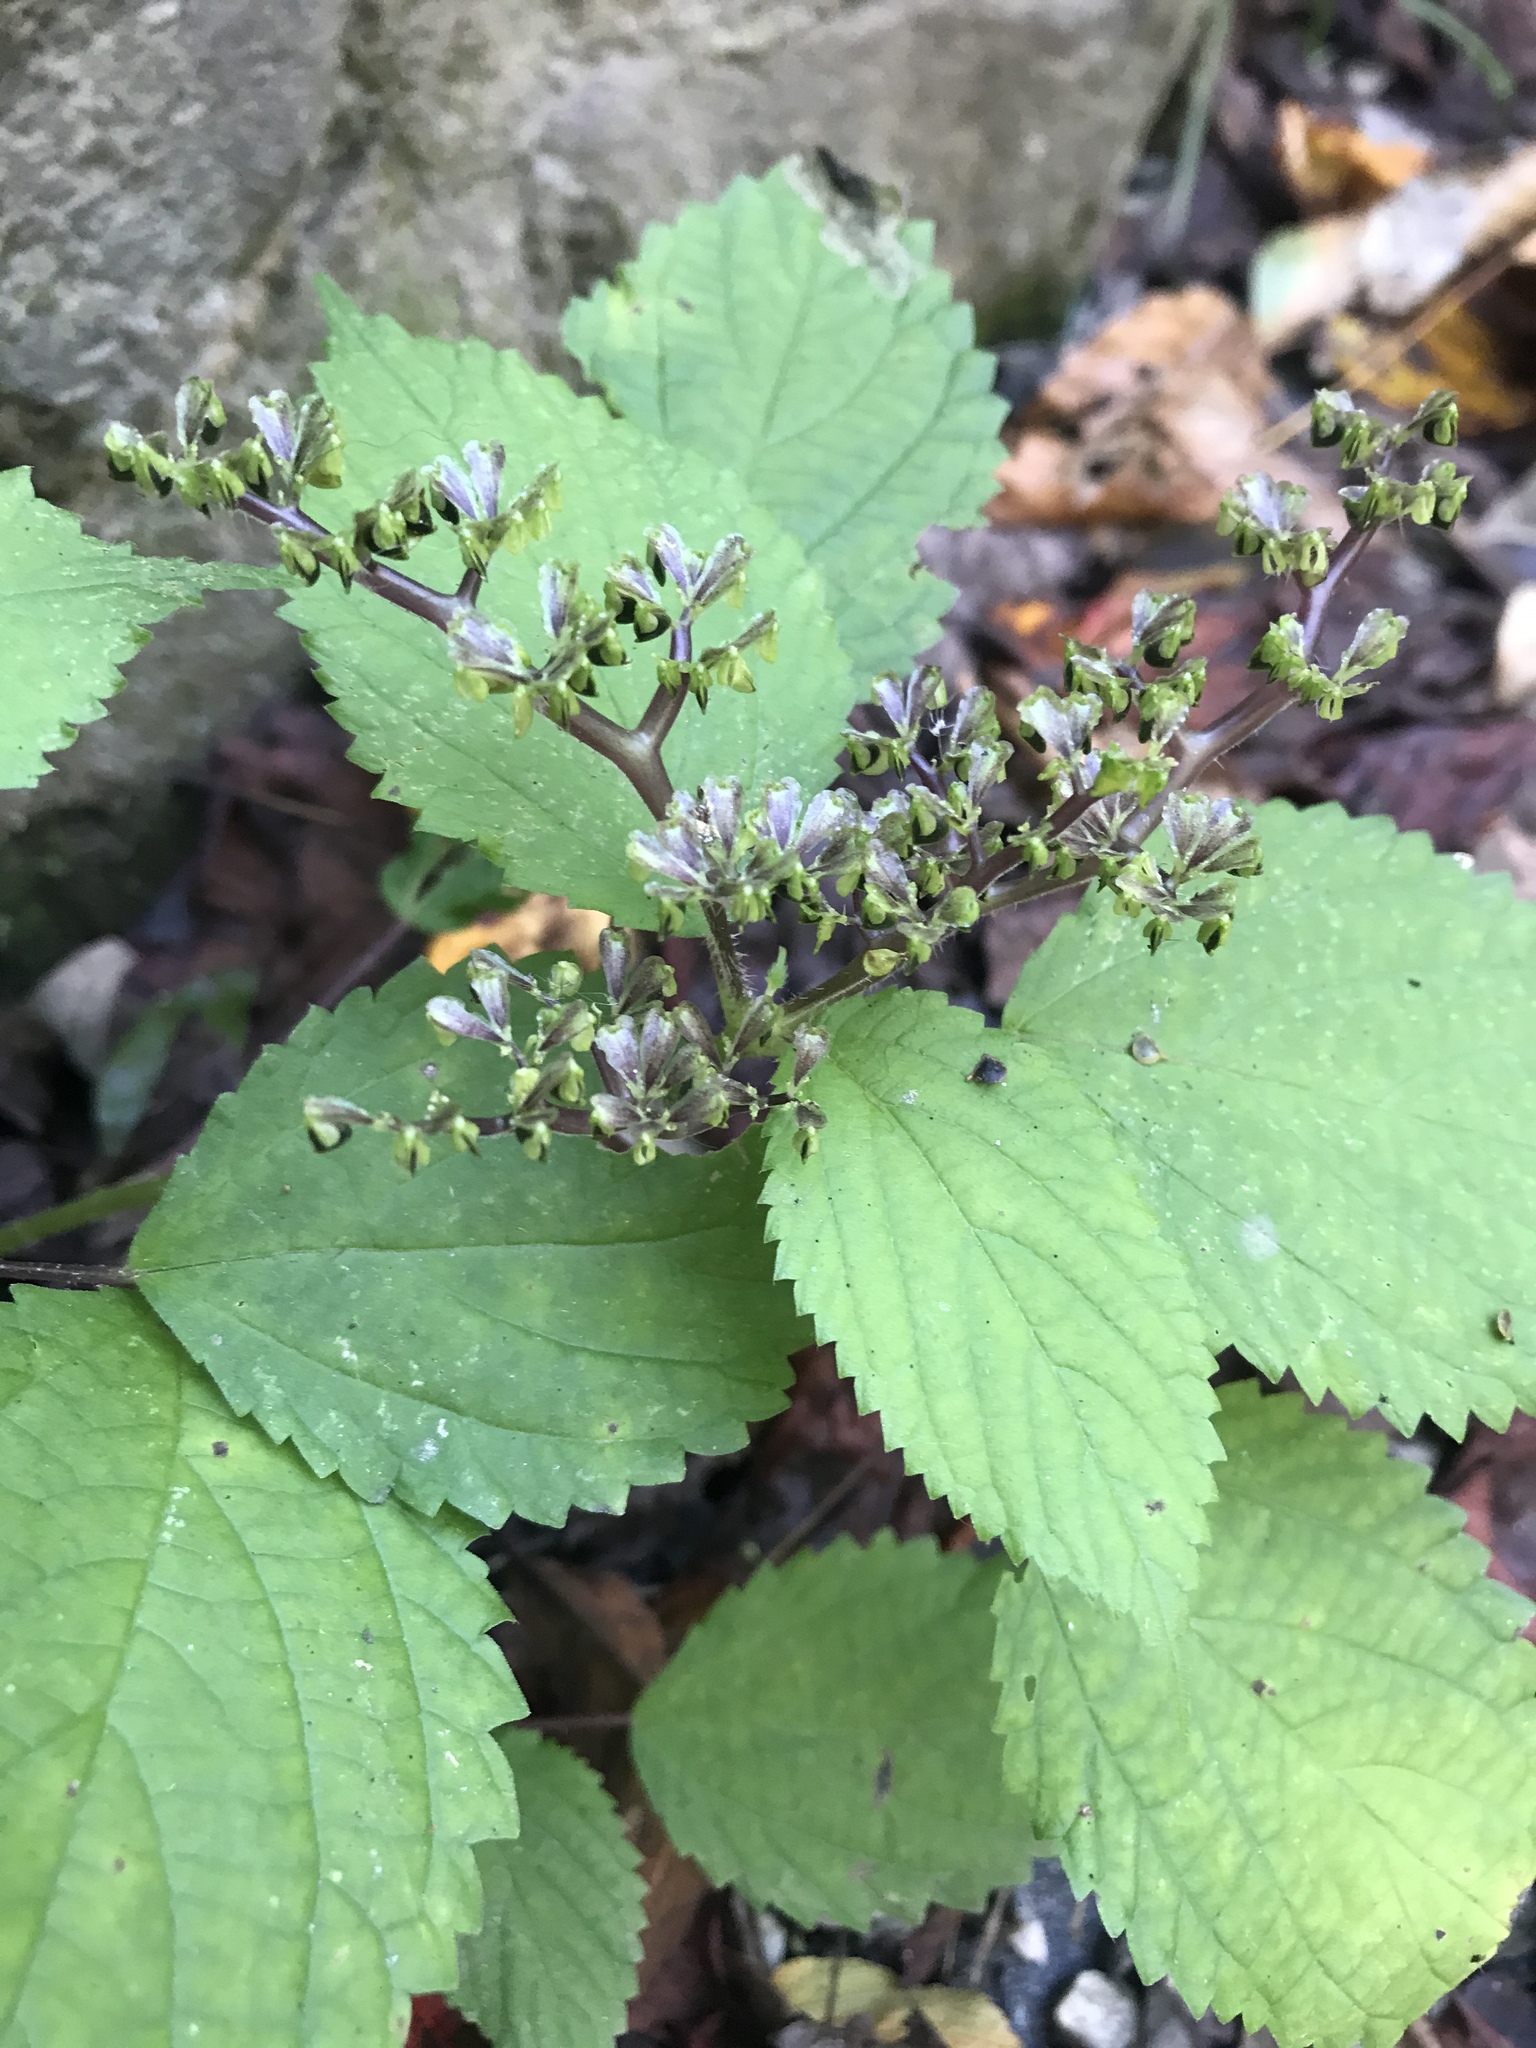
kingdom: Plantae
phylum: Tracheophyta
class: Magnoliopsida
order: Rosales
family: Urticaceae
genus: Laportea
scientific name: Laportea canadensis
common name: Canada nettle
